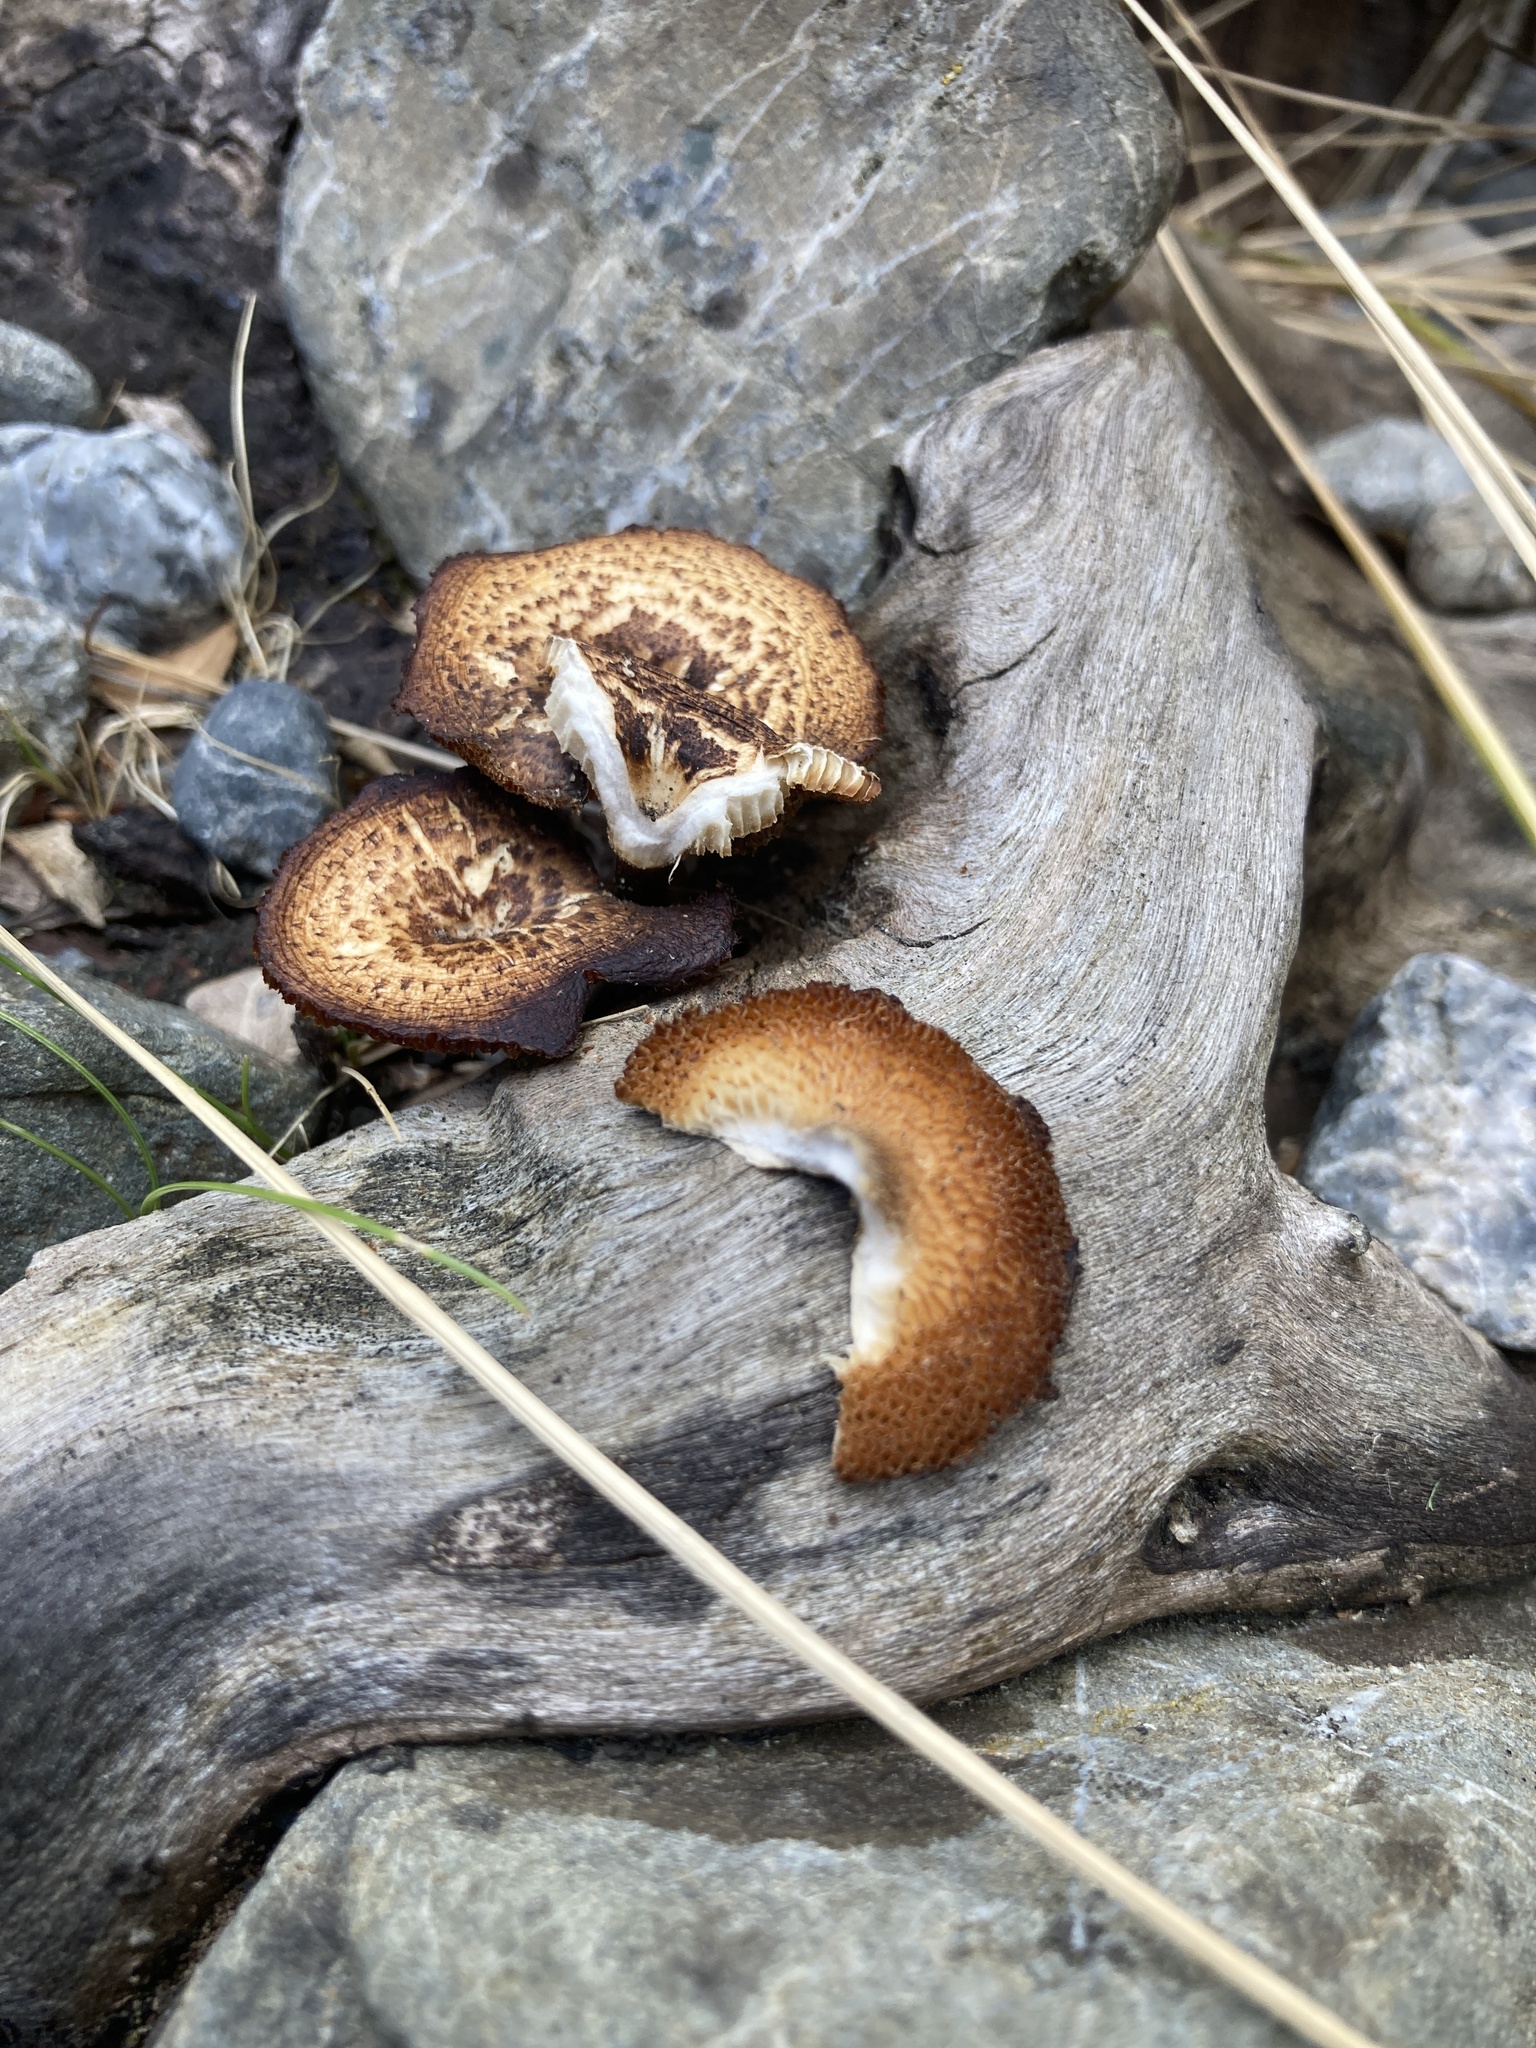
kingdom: Fungi
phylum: Basidiomycota
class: Agaricomycetes
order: Polyporales
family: Polyporaceae
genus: Lentinus
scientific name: Lentinus arcularius
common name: Spring polypore
